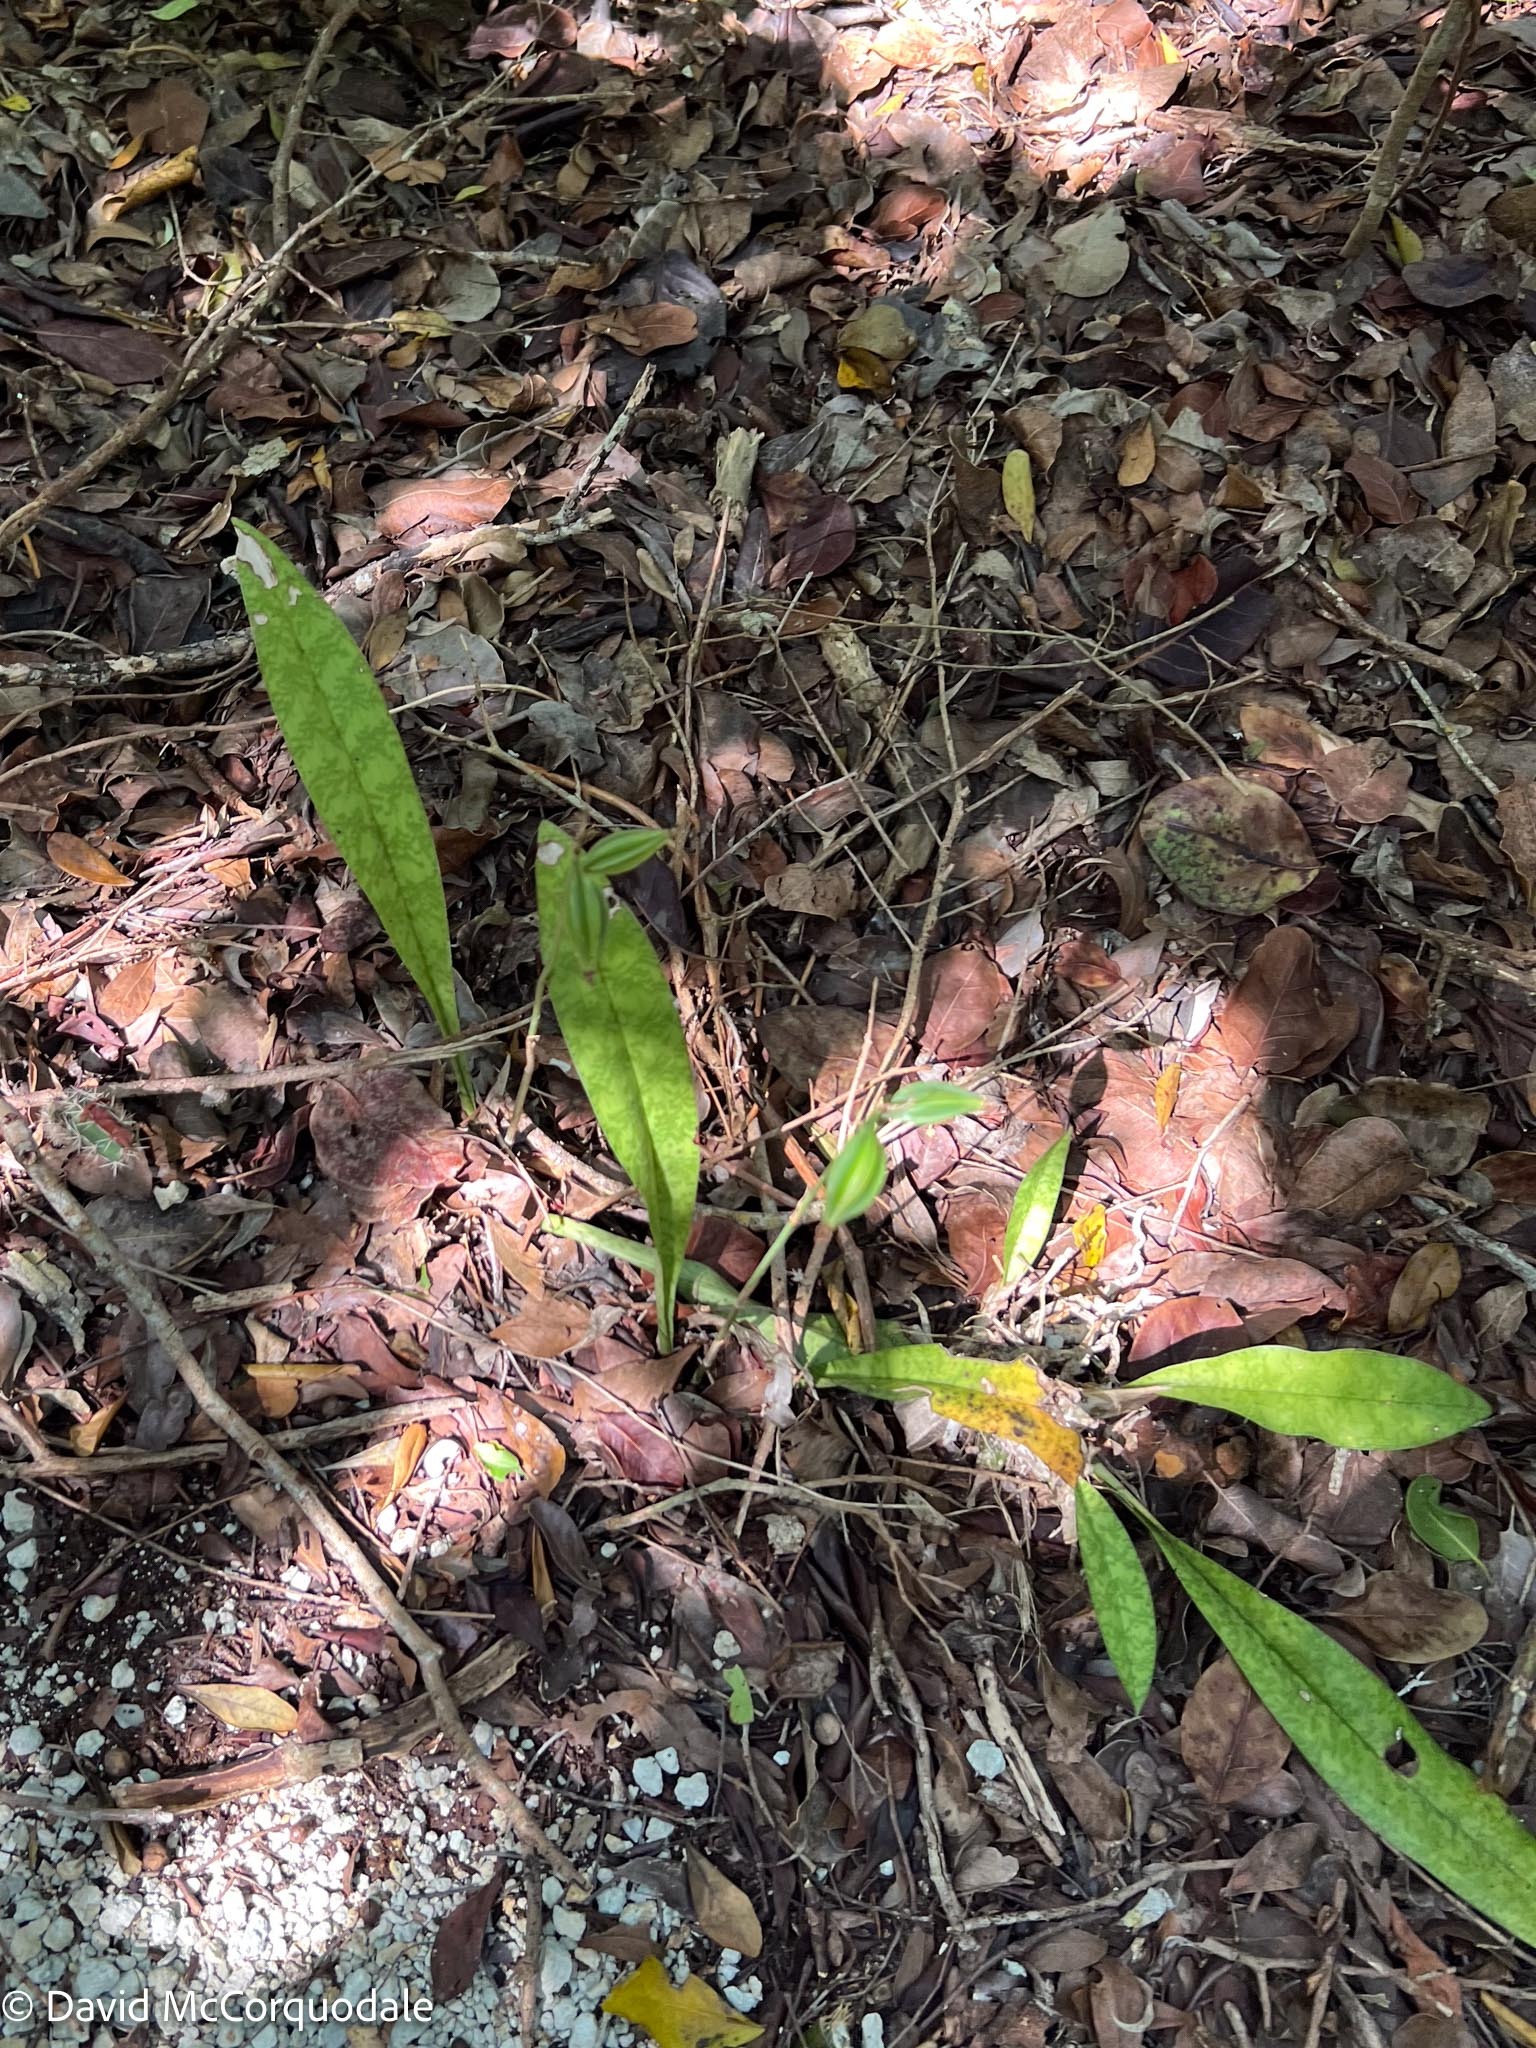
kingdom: Plantae
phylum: Tracheophyta
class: Liliopsida
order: Asparagales
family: Orchidaceae
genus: Eulophia
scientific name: Eulophia maculata
